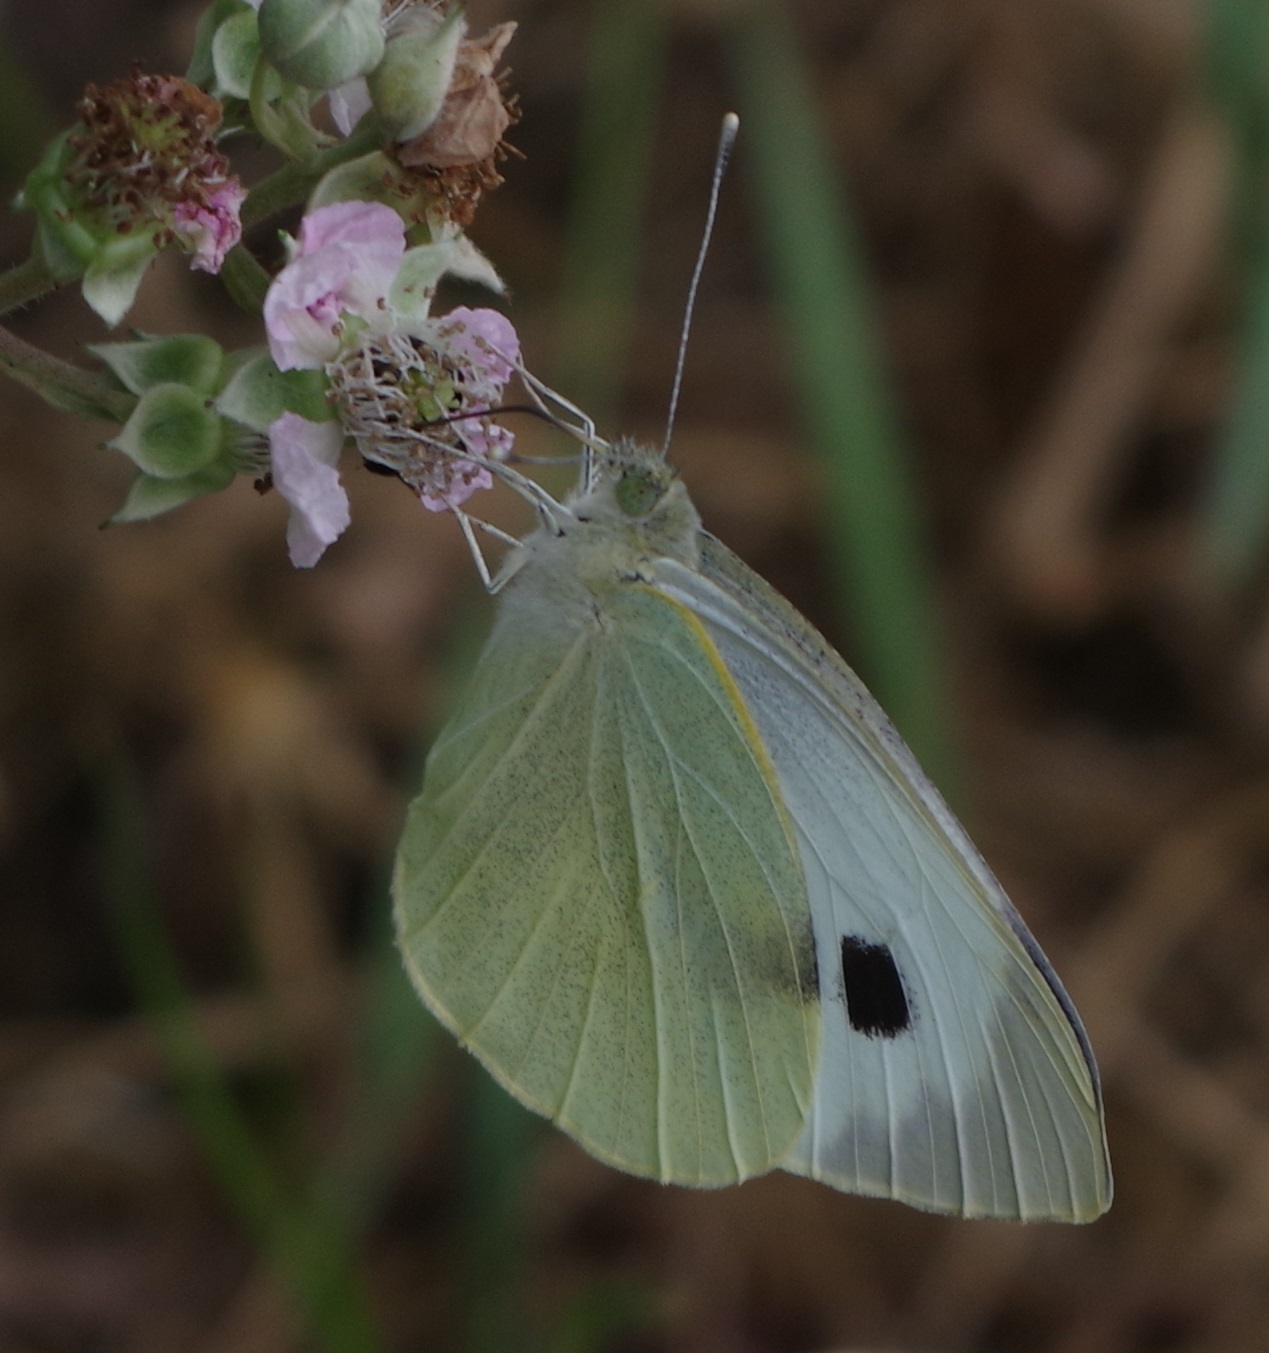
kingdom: Animalia
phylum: Arthropoda
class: Insecta
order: Lepidoptera
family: Pieridae
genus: Pieris
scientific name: Pieris brassicae
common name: Large white
